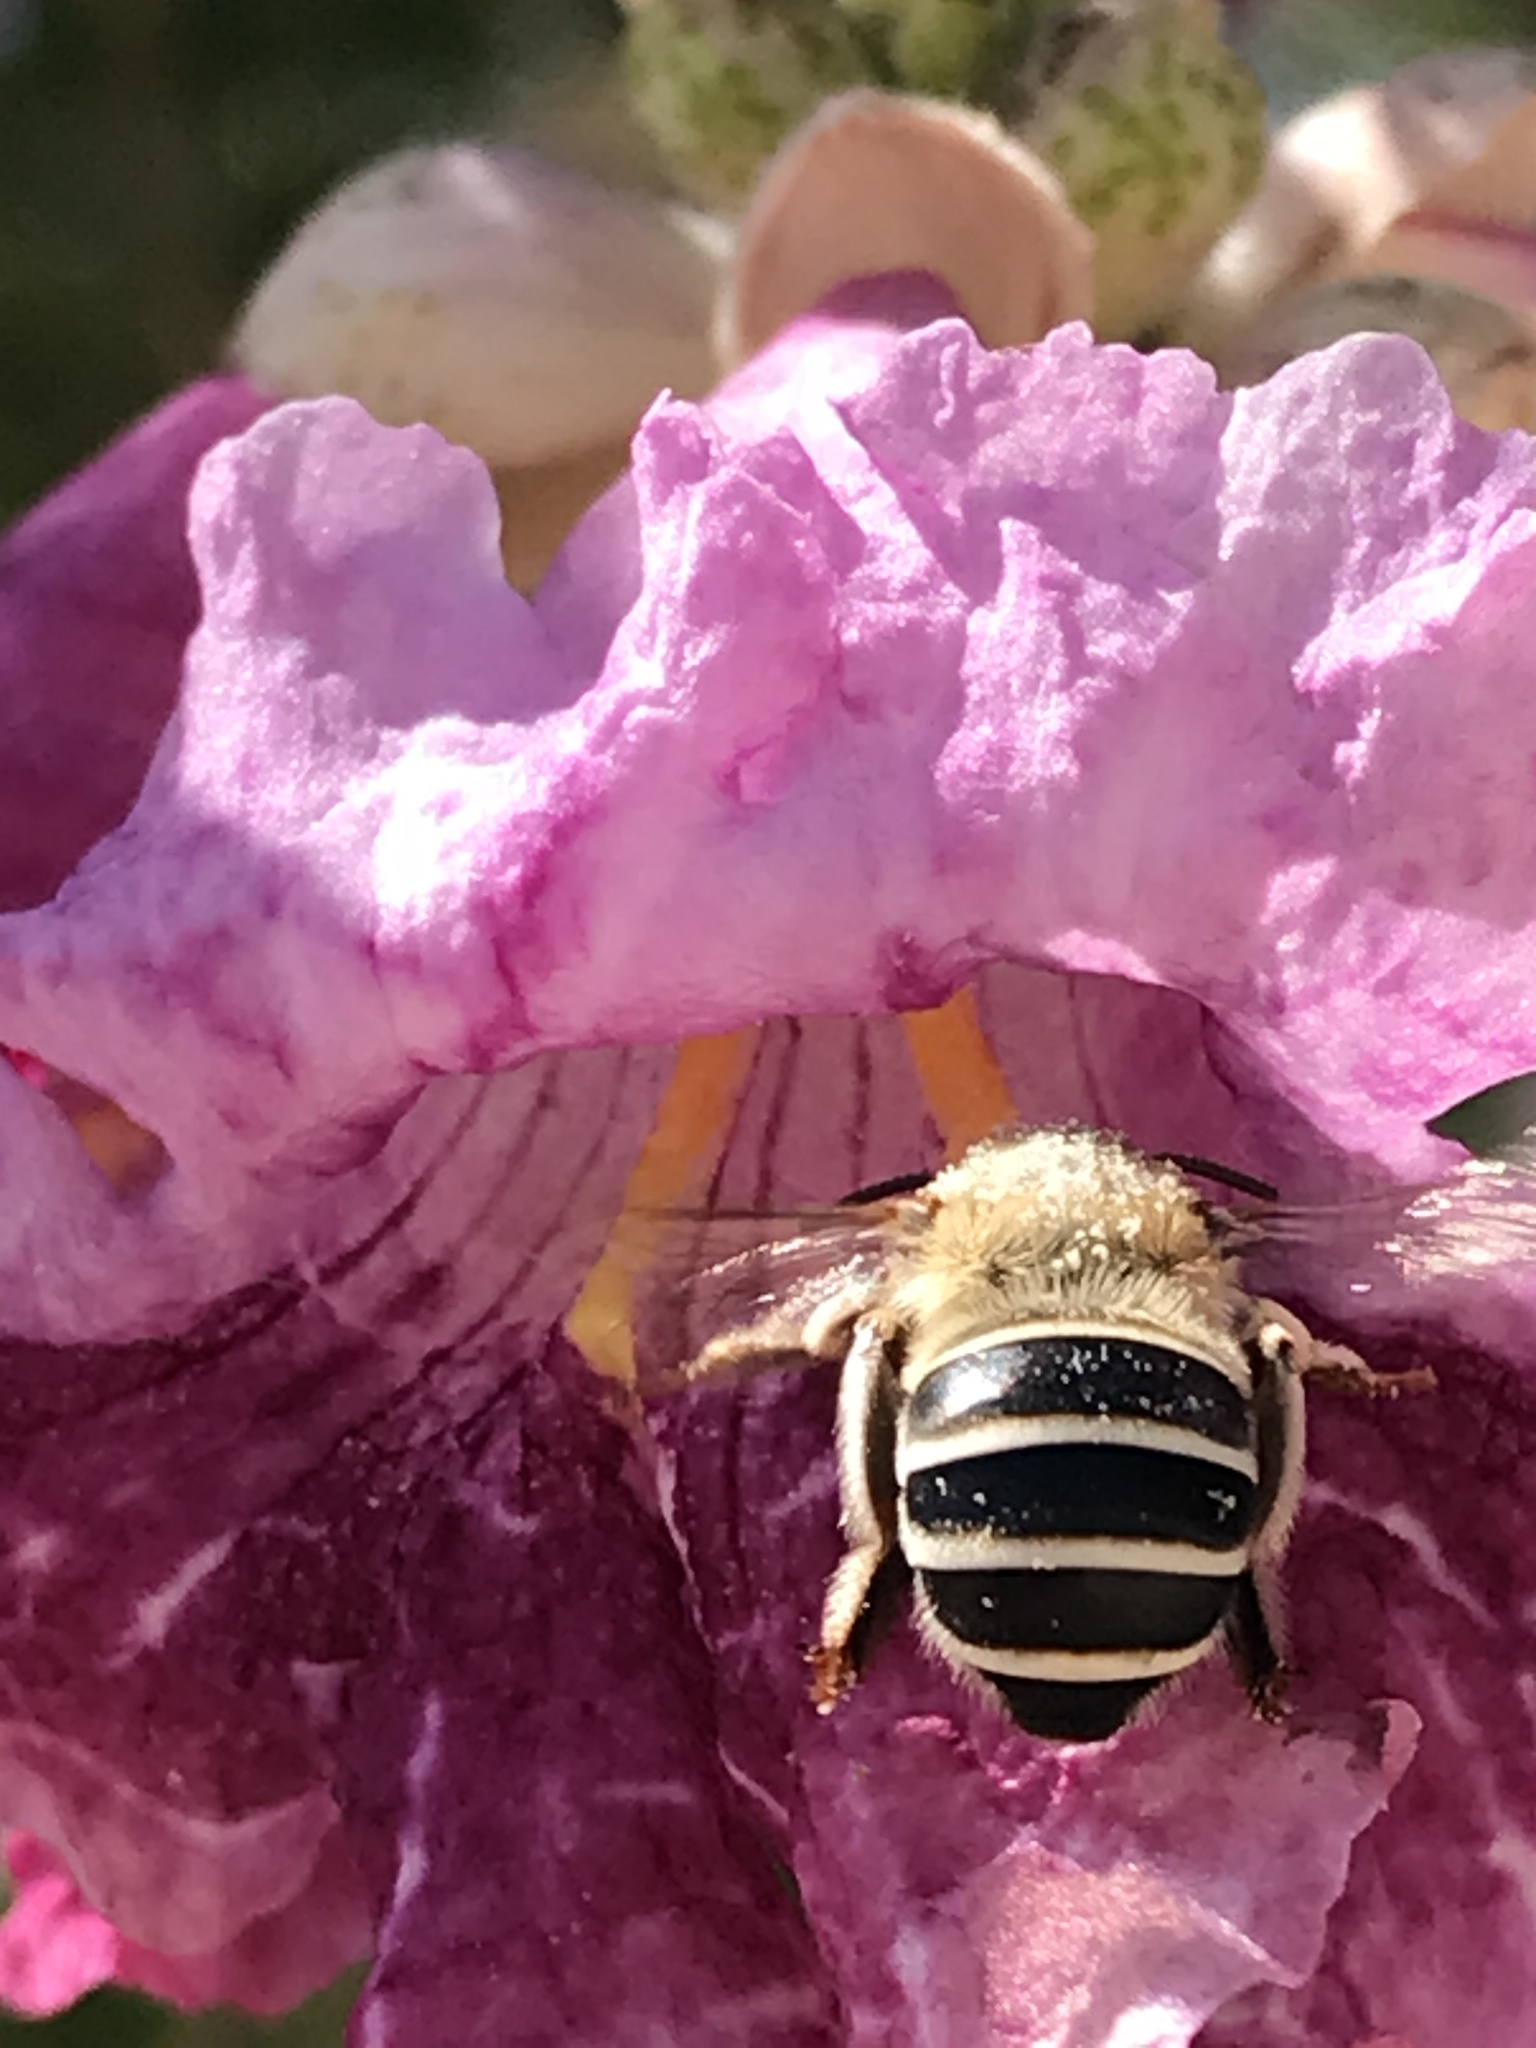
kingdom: Animalia
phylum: Arthropoda
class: Insecta
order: Hymenoptera
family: Apidae
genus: Anthophora
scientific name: Anthophora californica
